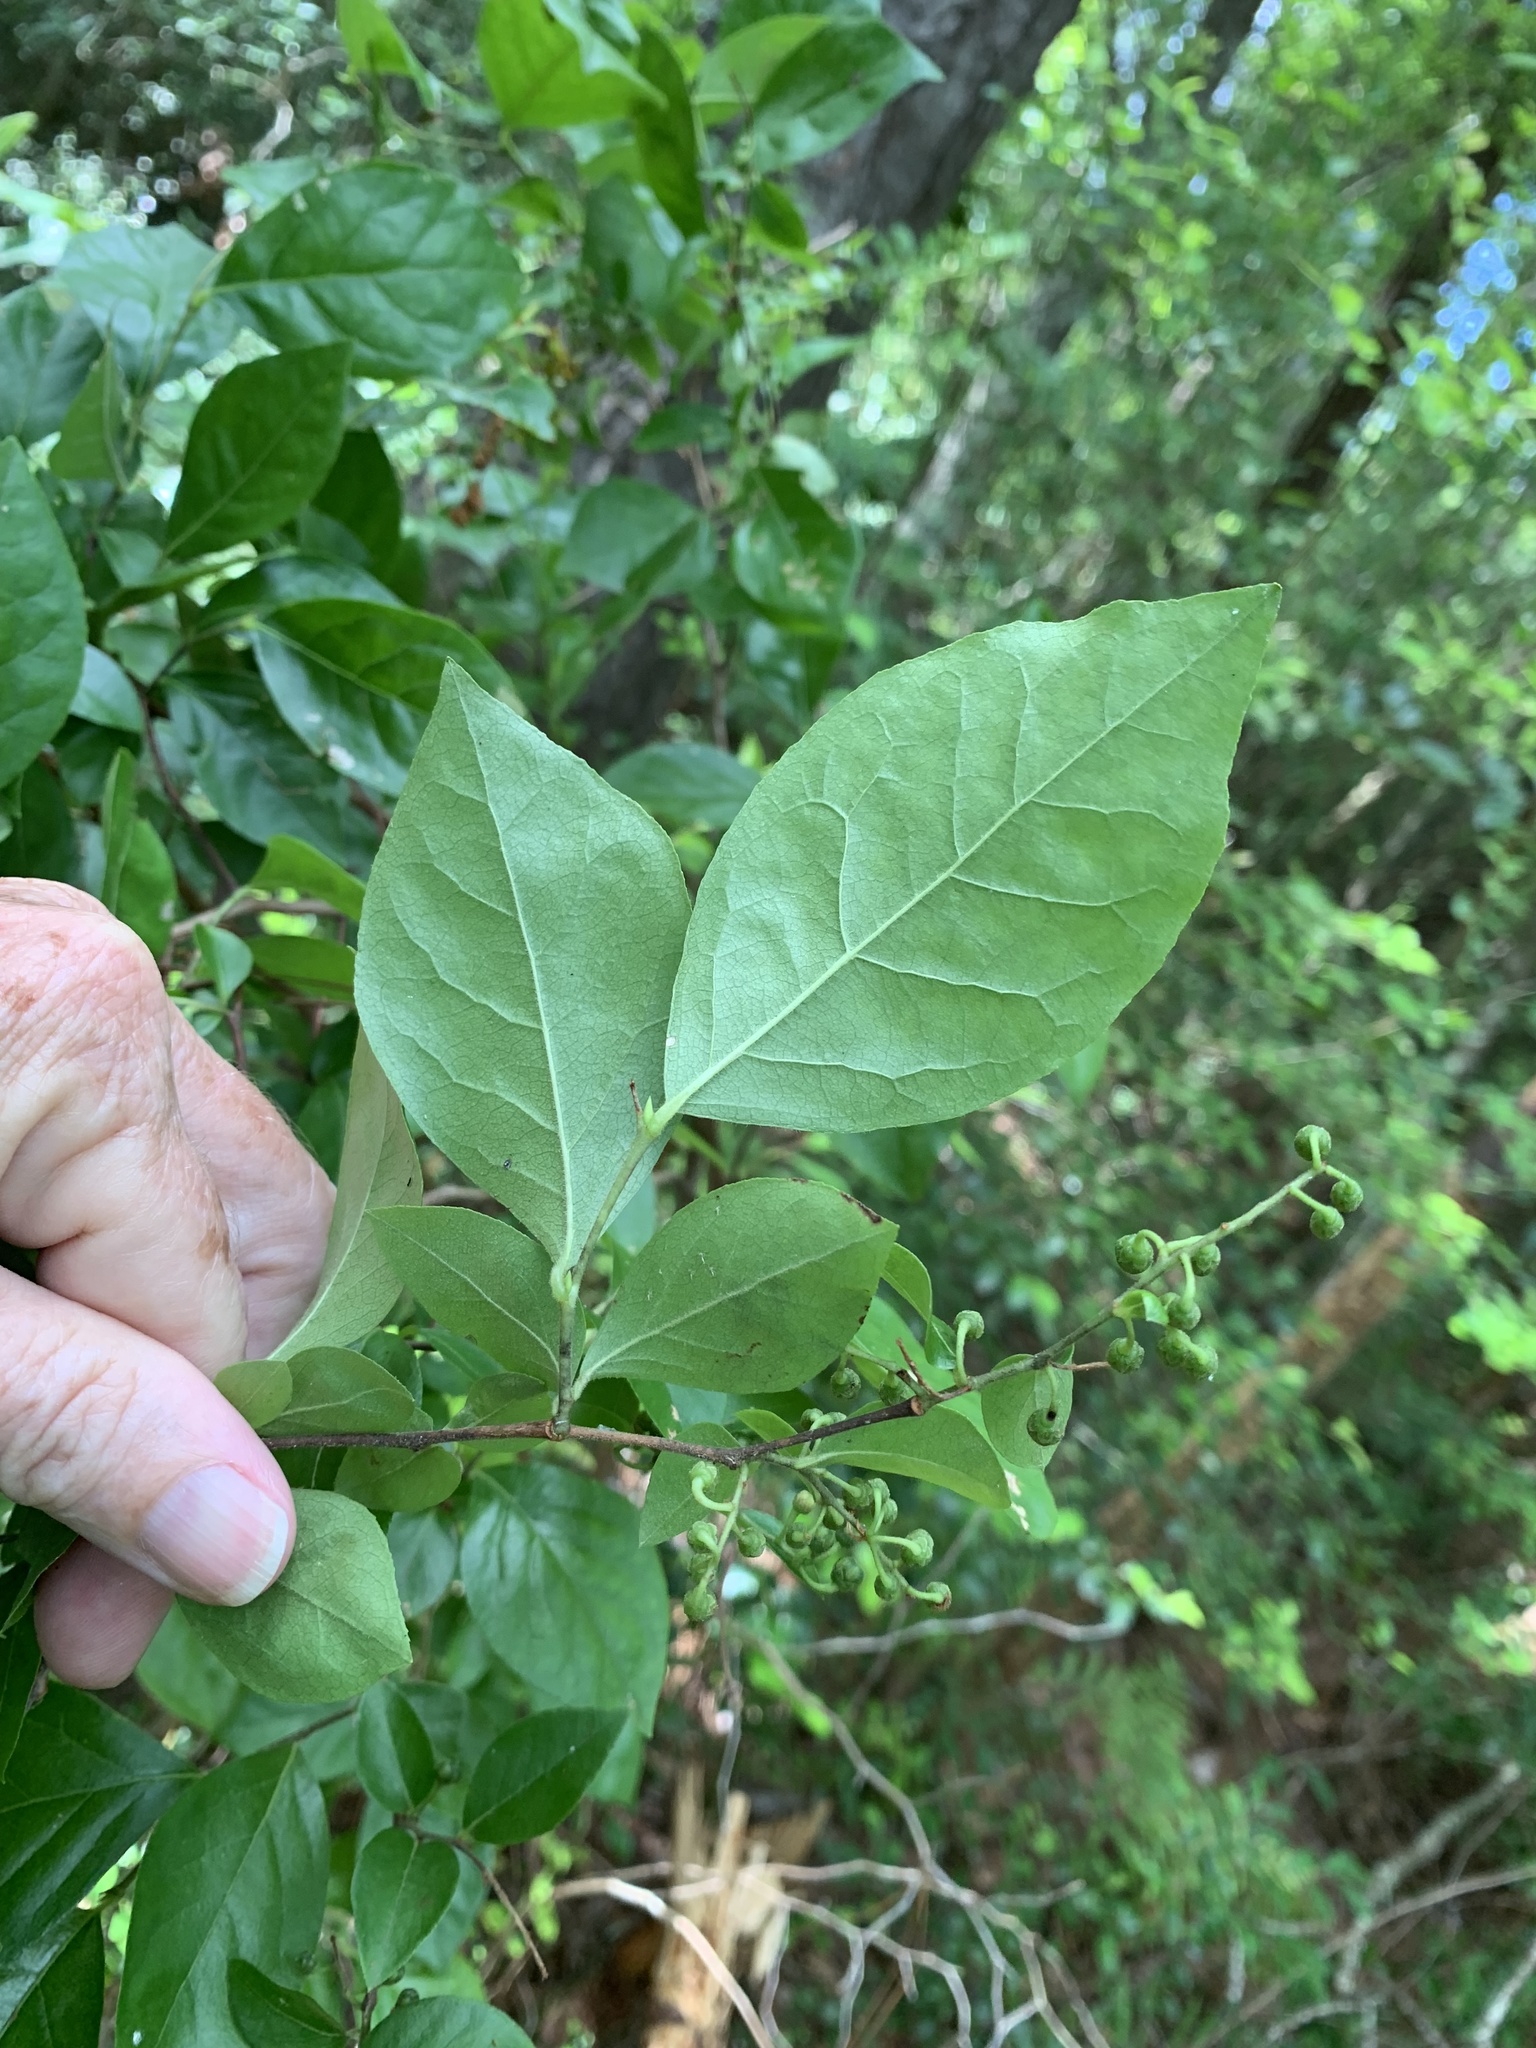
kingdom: Plantae
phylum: Tracheophyta
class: Magnoliopsida
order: Ericales
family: Ericaceae
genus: Lyonia
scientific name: Lyonia ligustrina
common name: Maleberry
